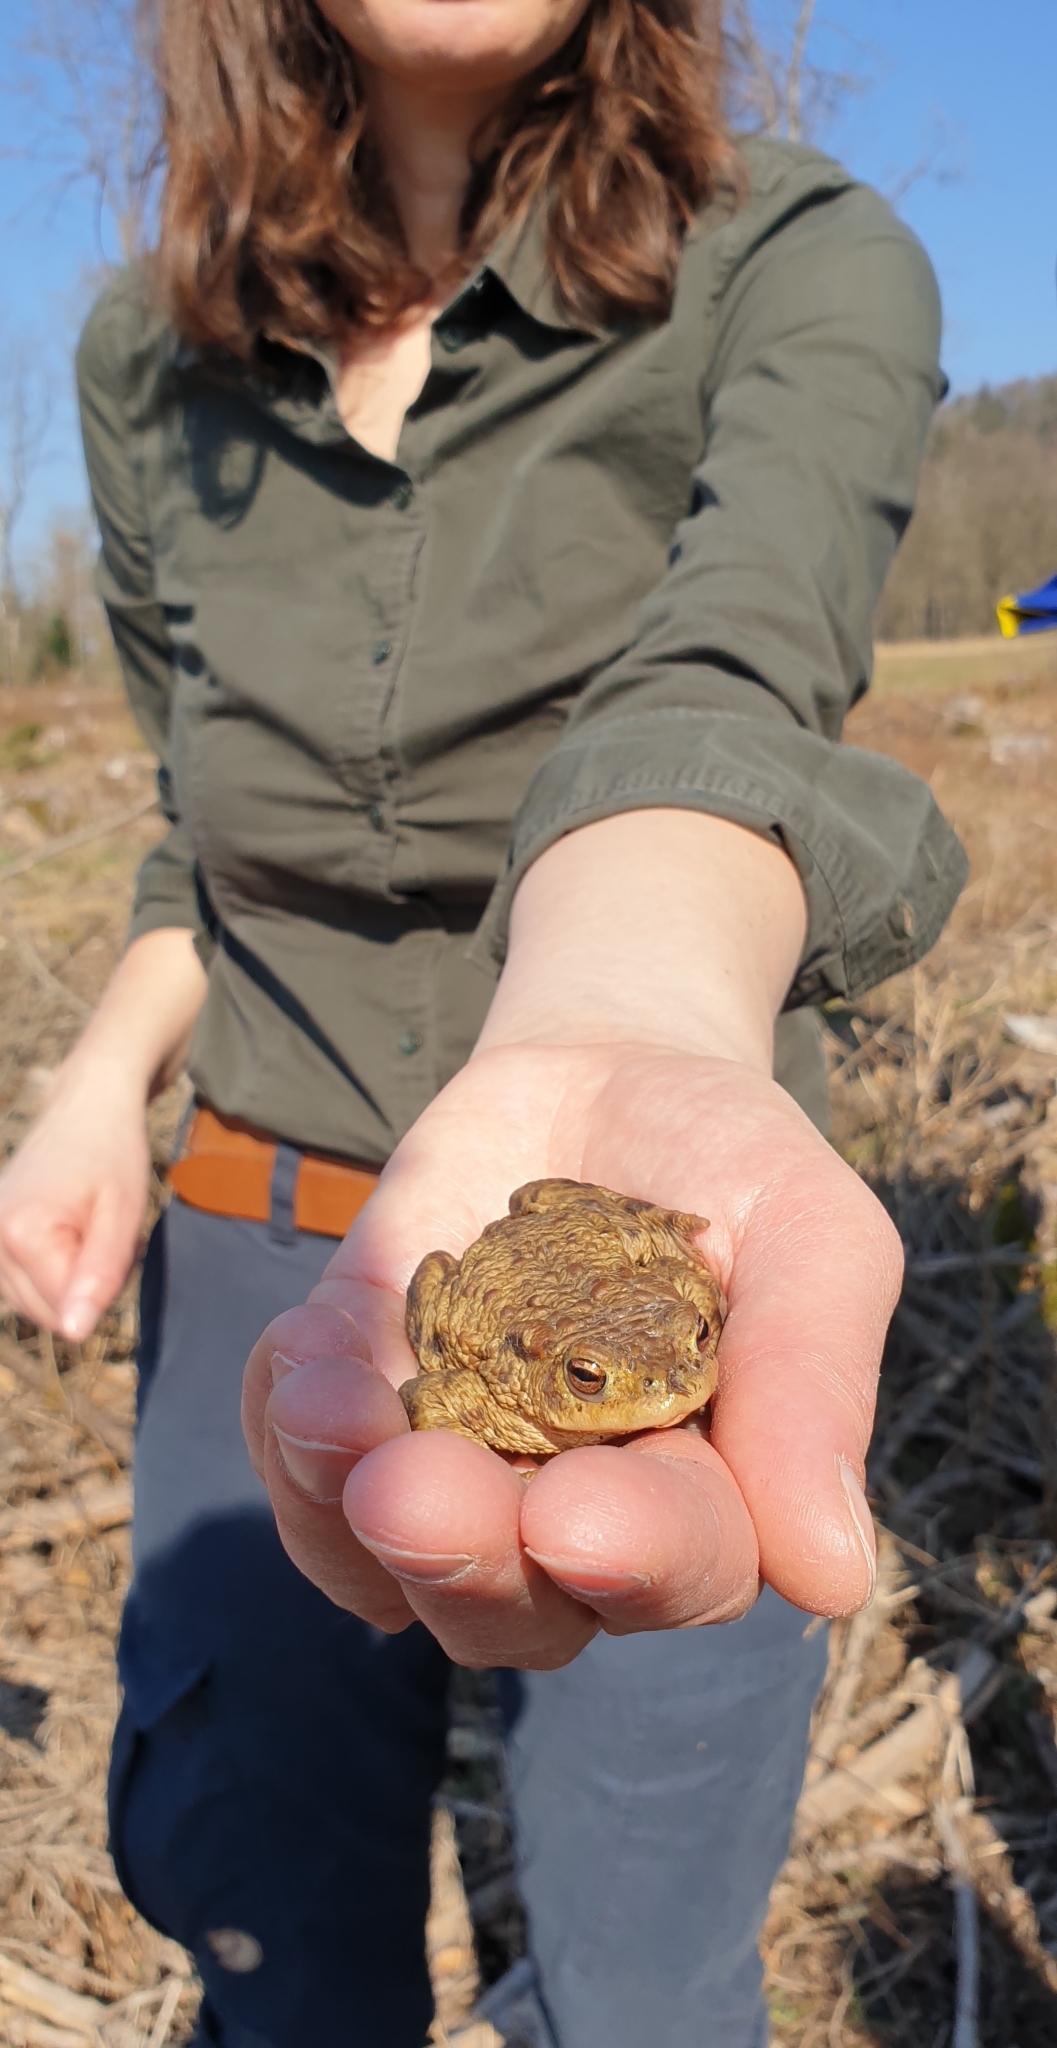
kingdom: Animalia
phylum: Chordata
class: Amphibia
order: Anura
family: Bufonidae
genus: Bufo
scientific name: Bufo bufo
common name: Common toad
